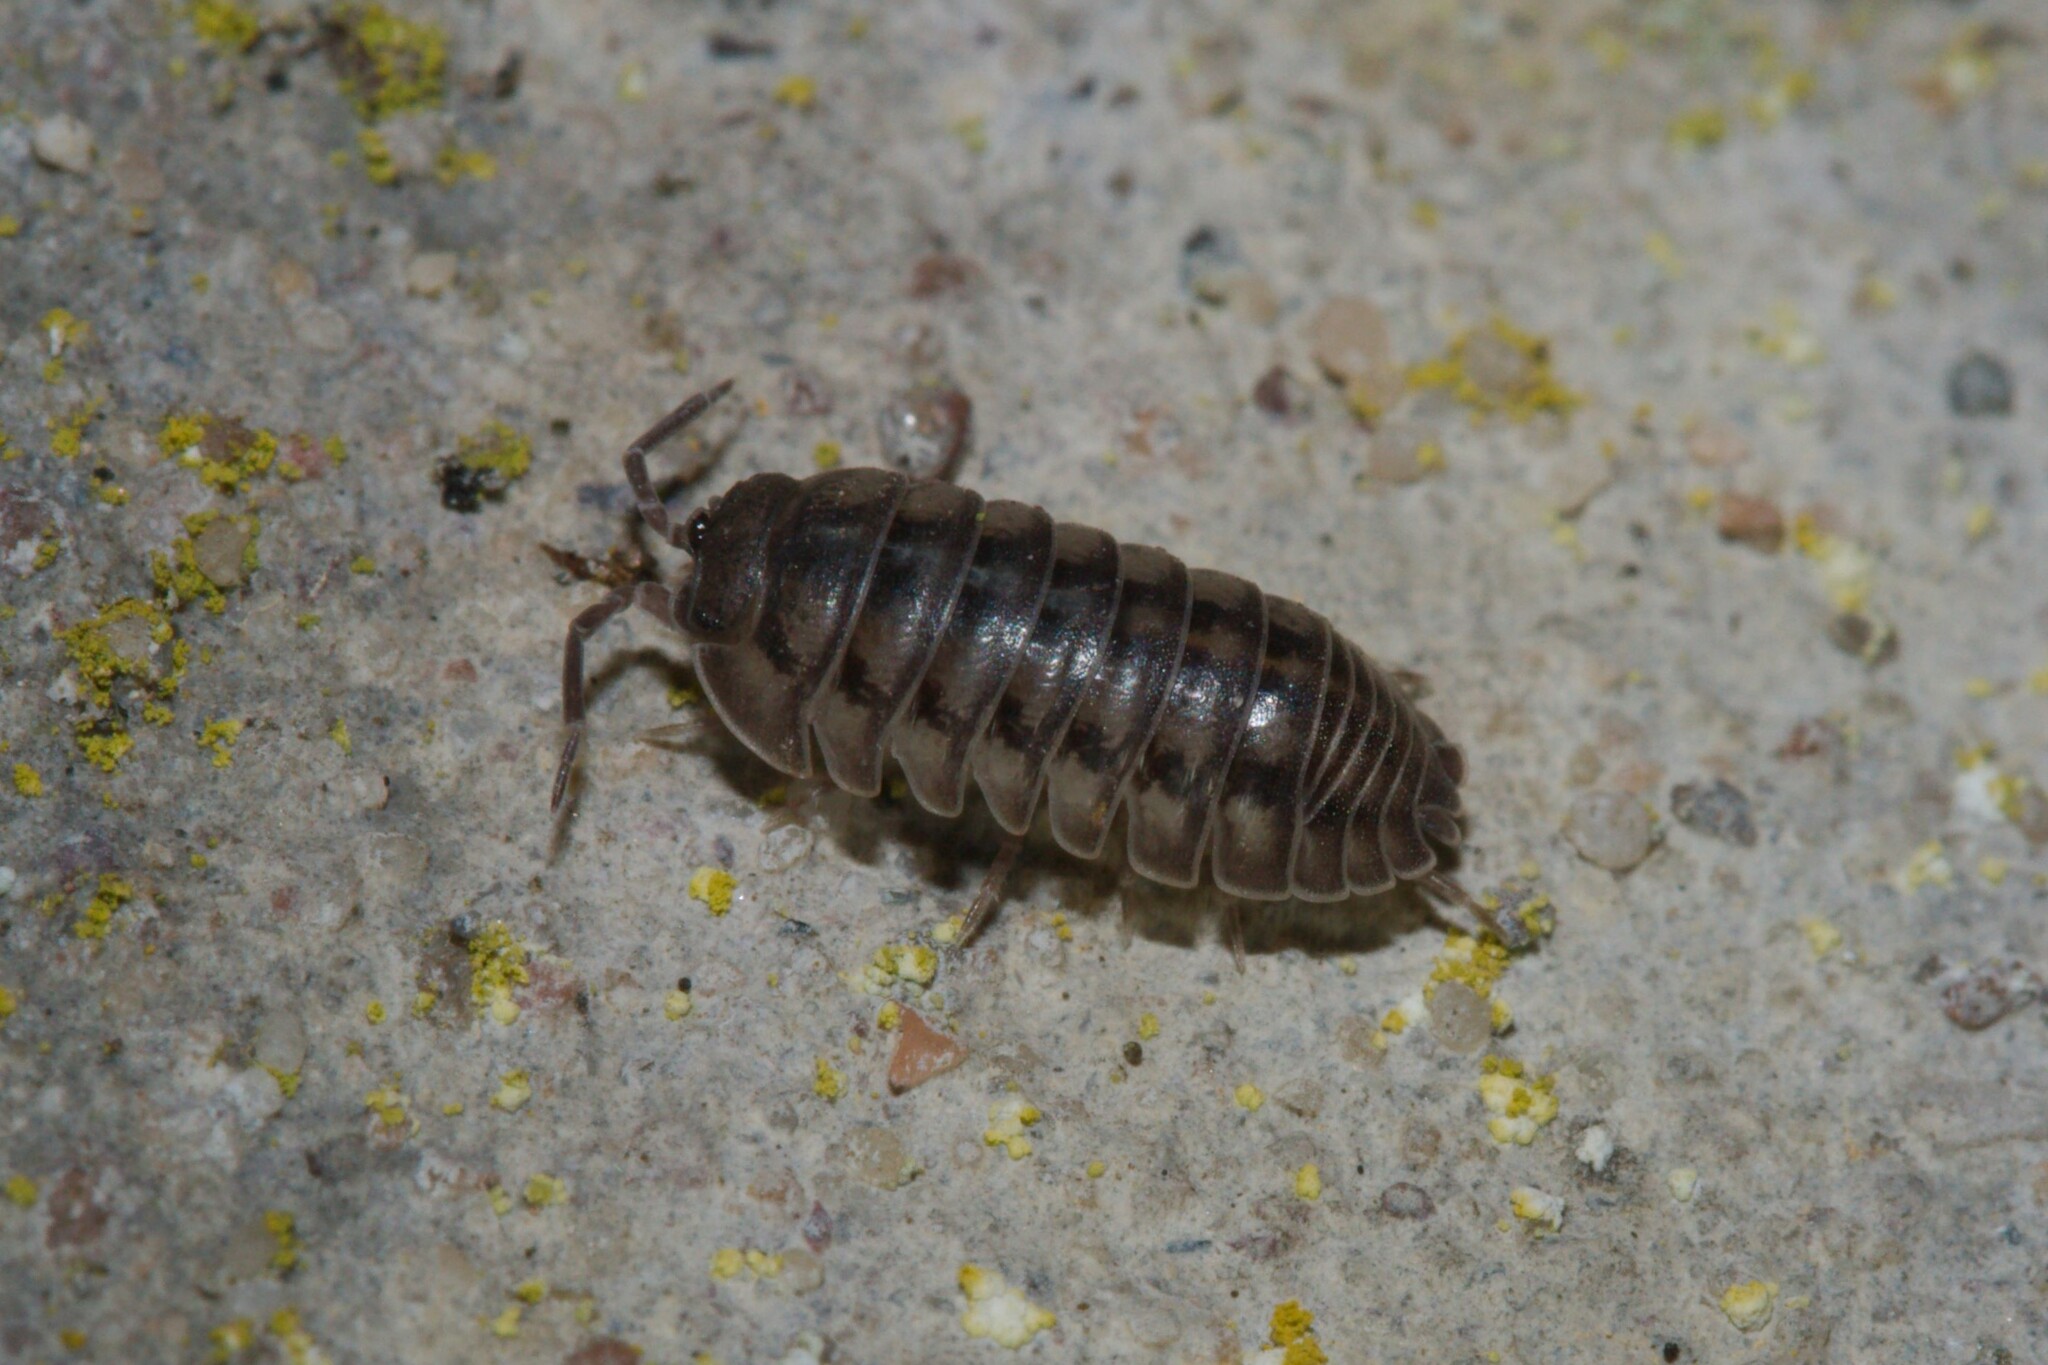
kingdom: Animalia
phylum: Arthropoda
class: Malacostraca
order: Isopoda
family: Armadillidiidae
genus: Armadillidium
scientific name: Armadillidium nasatum
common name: Isopod
